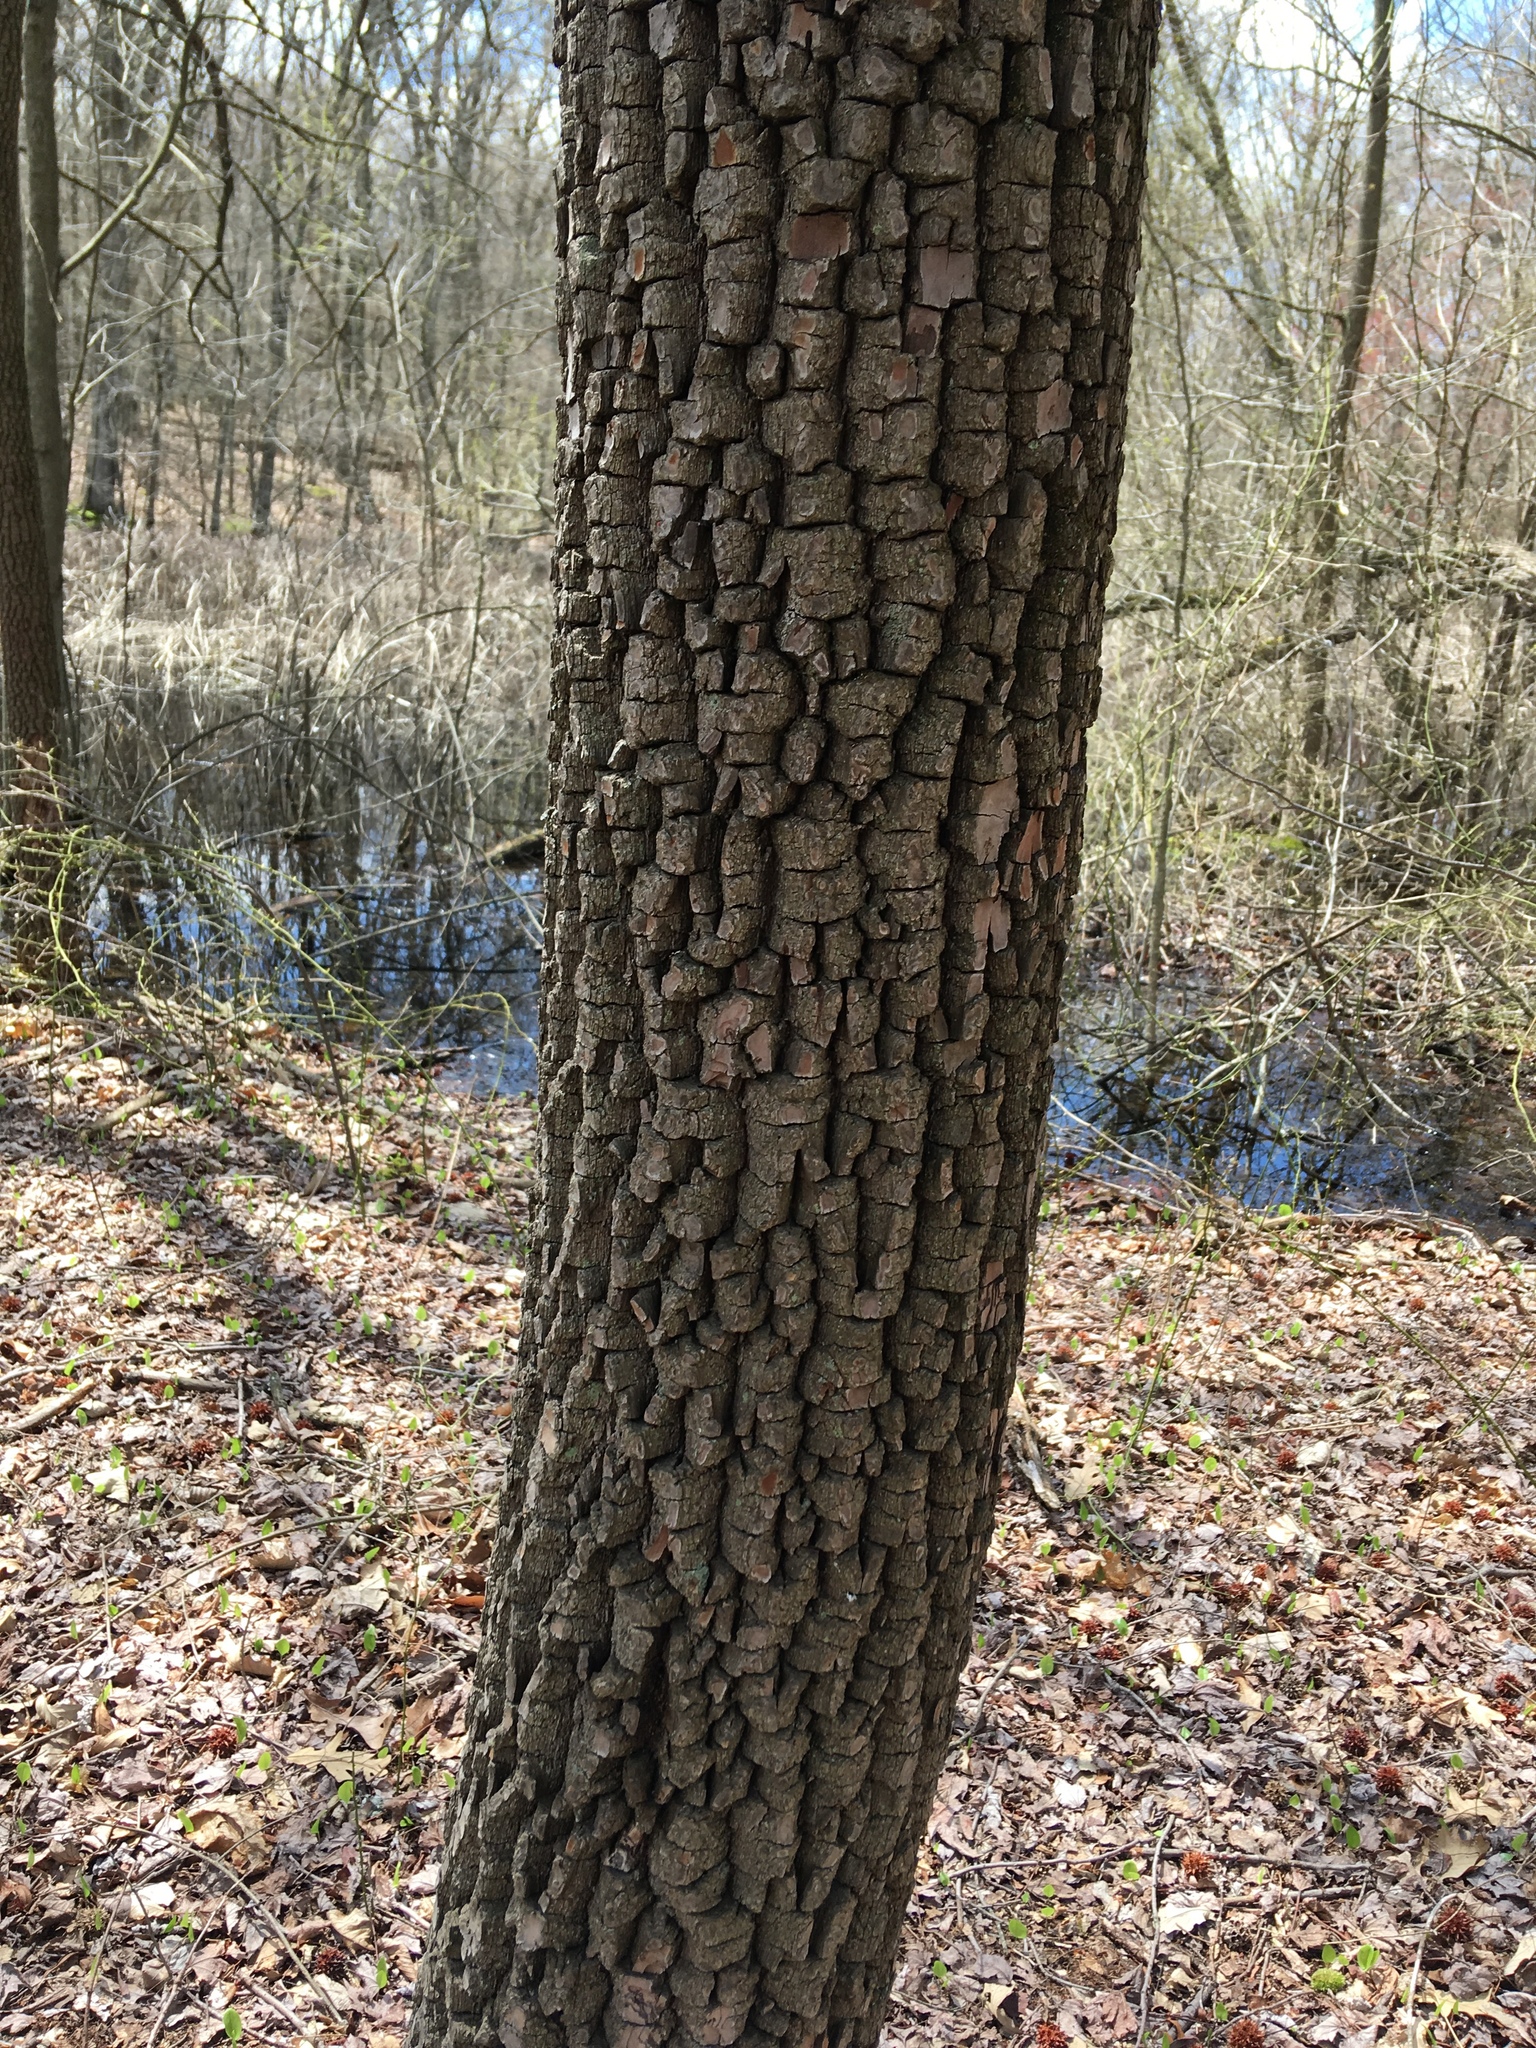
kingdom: Plantae
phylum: Tracheophyta
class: Magnoliopsida
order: Ericales
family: Ebenaceae
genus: Diospyros
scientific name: Diospyros virginiana
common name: Persimmon
